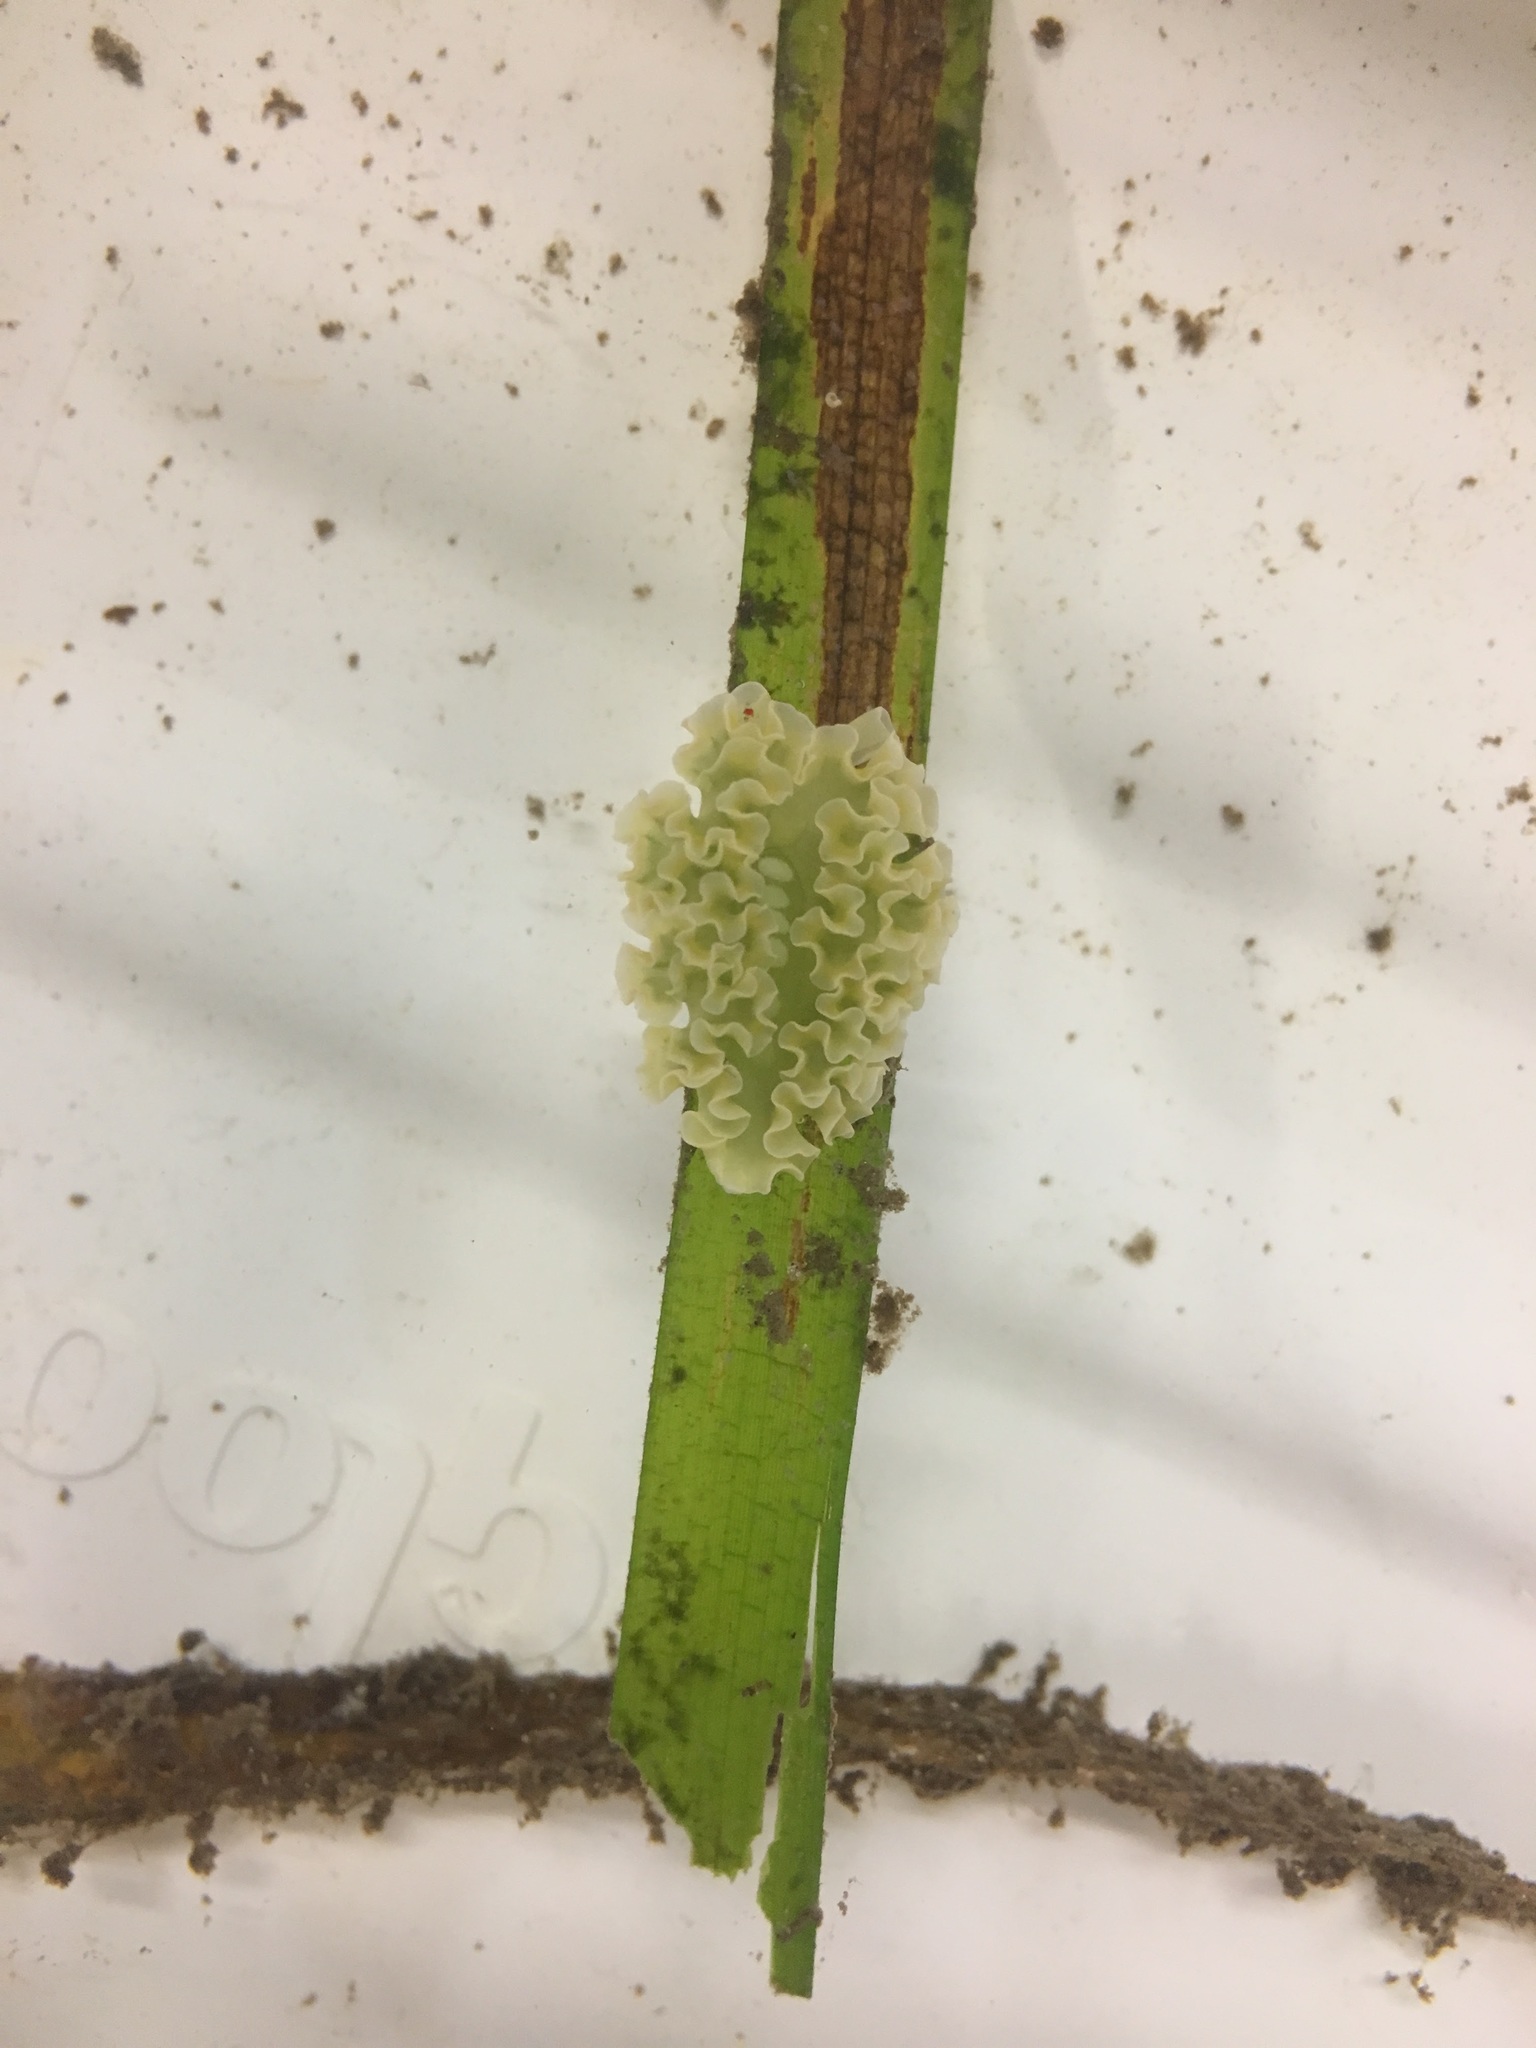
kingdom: Animalia
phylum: Mollusca
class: Gastropoda
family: Plakobranchidae
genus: Elysia
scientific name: Elysia crispata
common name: Lettuce slug
